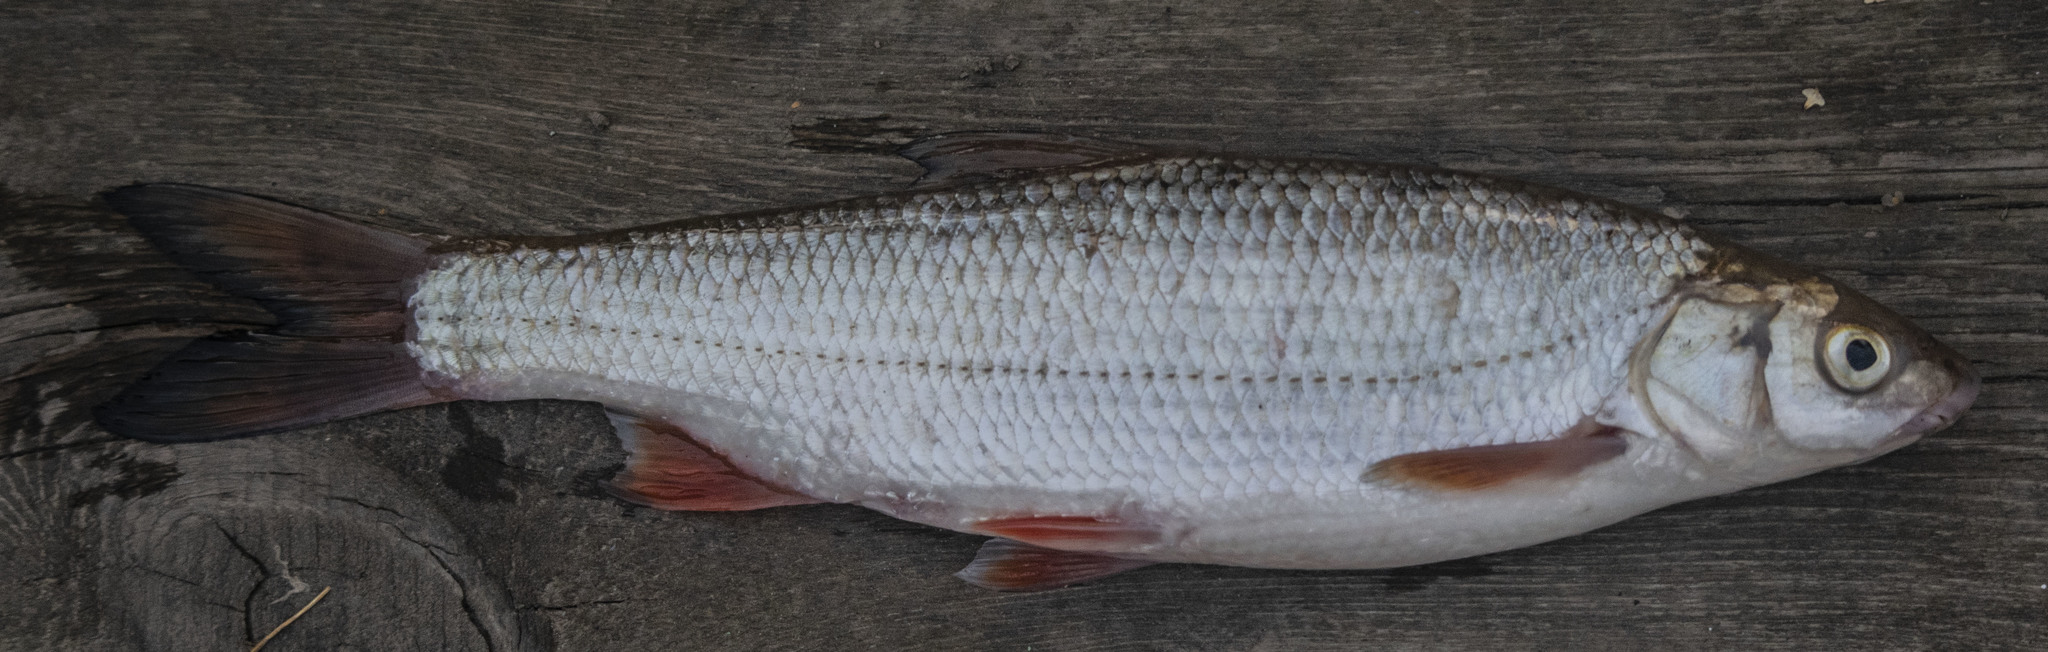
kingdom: Animalia
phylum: Chordata
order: Cypriniformes
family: Cyprinidae
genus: Chondrostoma
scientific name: Chondrostoma variabile
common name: Volga nase
